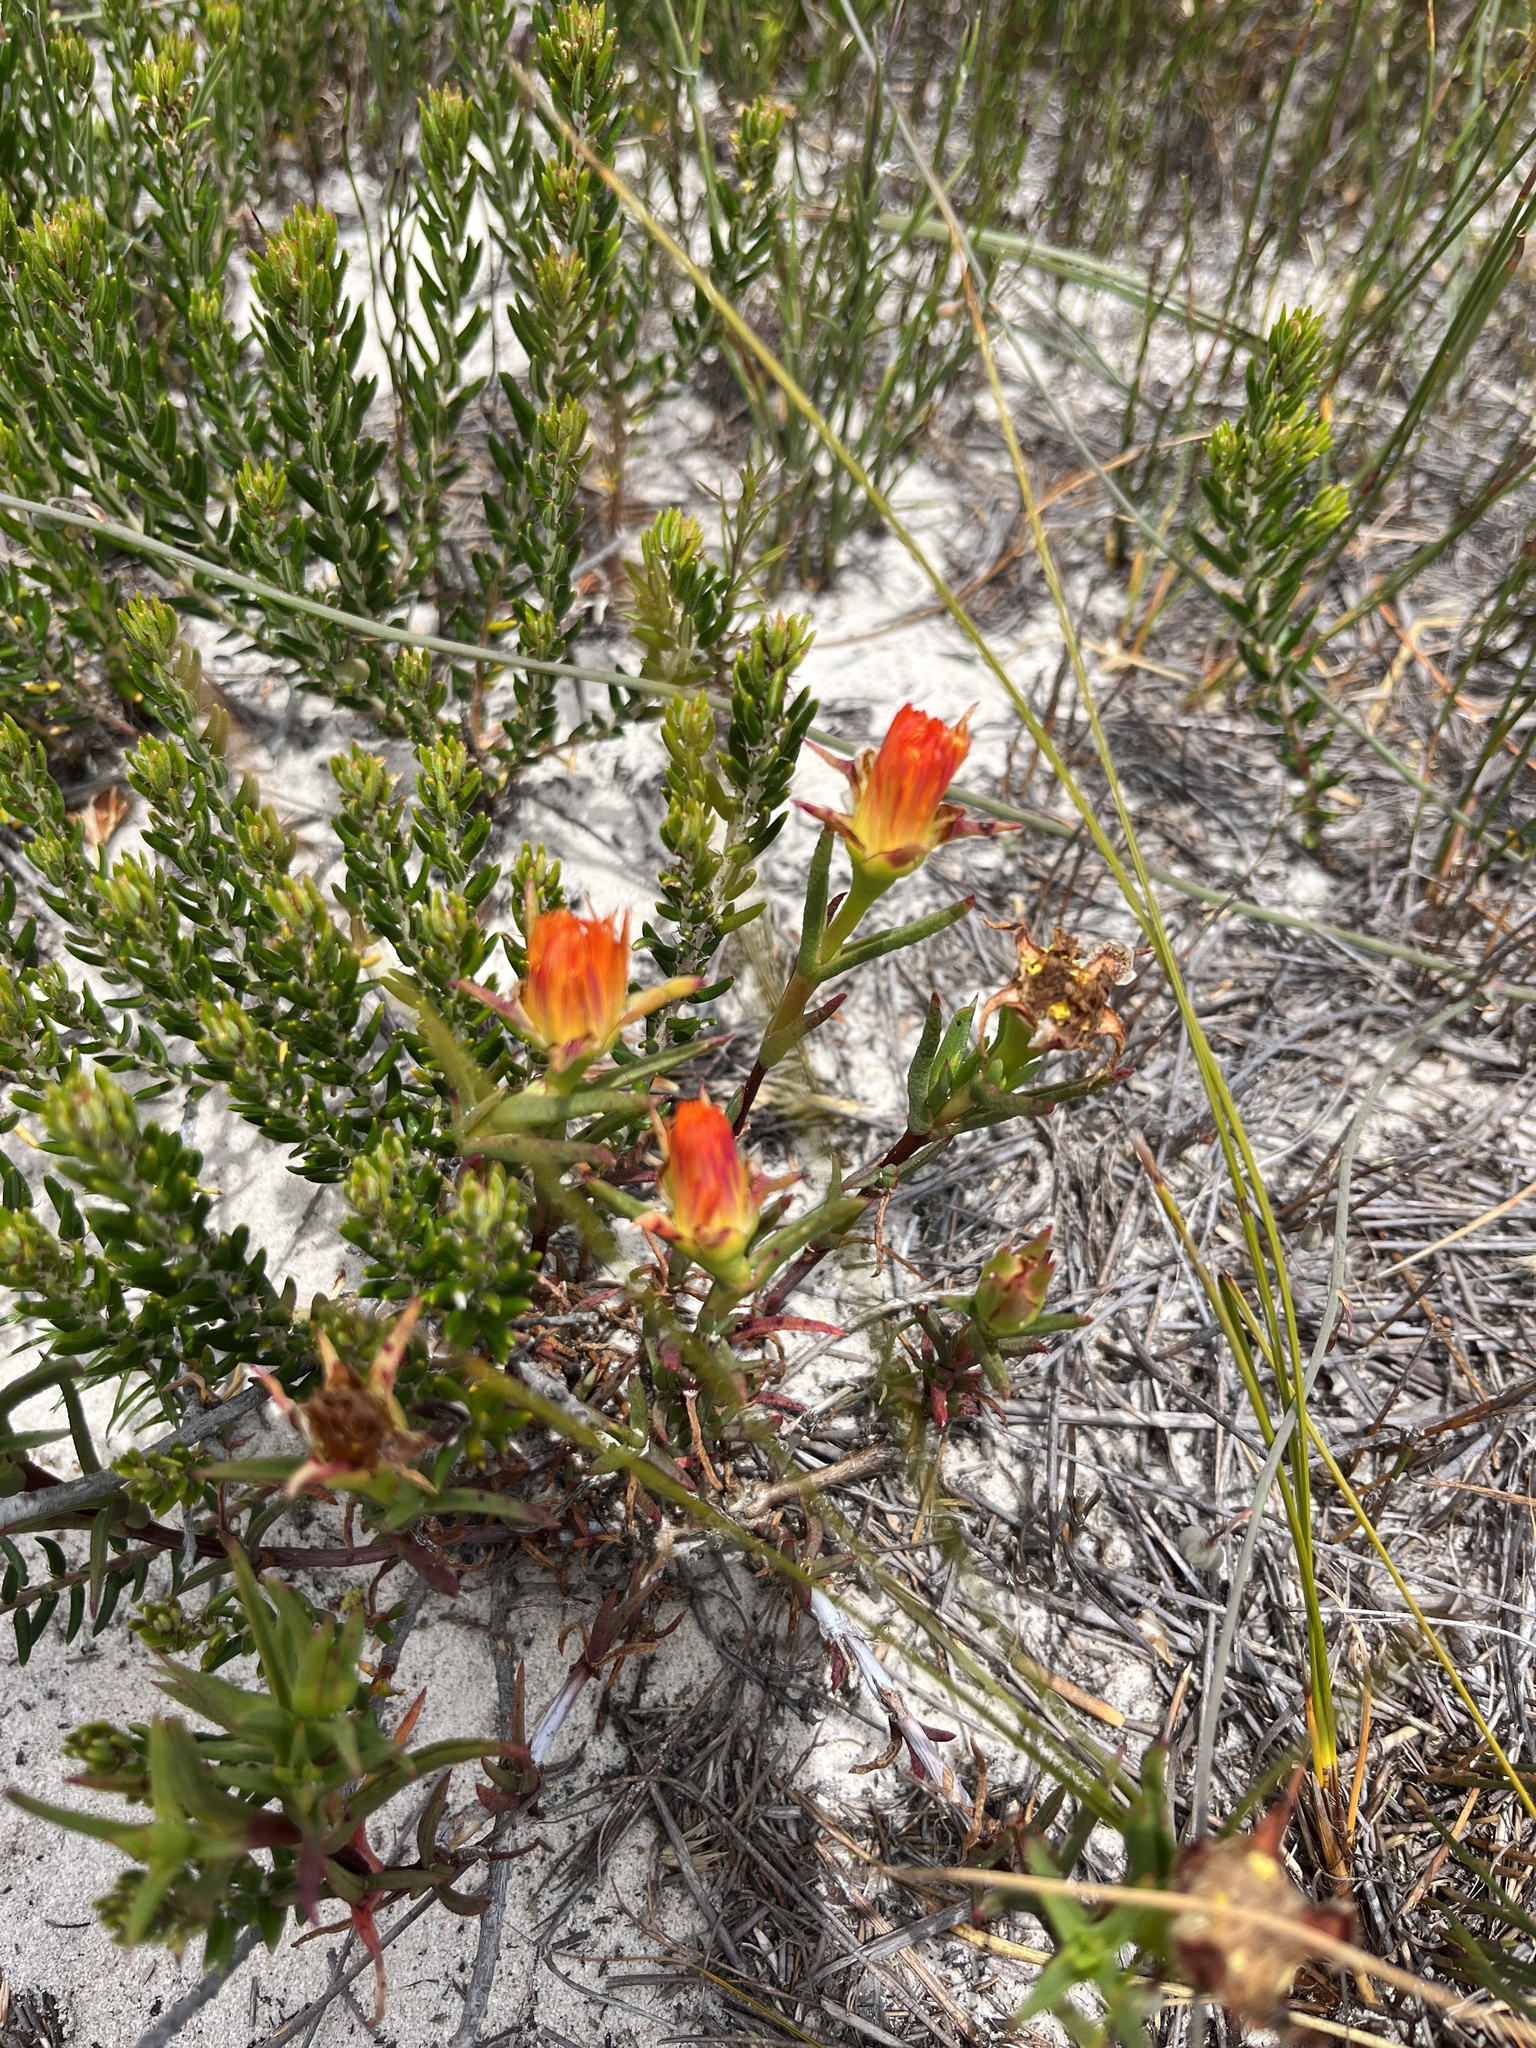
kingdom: Plantae
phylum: Tracheophyta
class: Magnoliopsida
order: Caryophyllales
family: Aizoaceae
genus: Lampranthus
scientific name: Lampranthus bicolor
